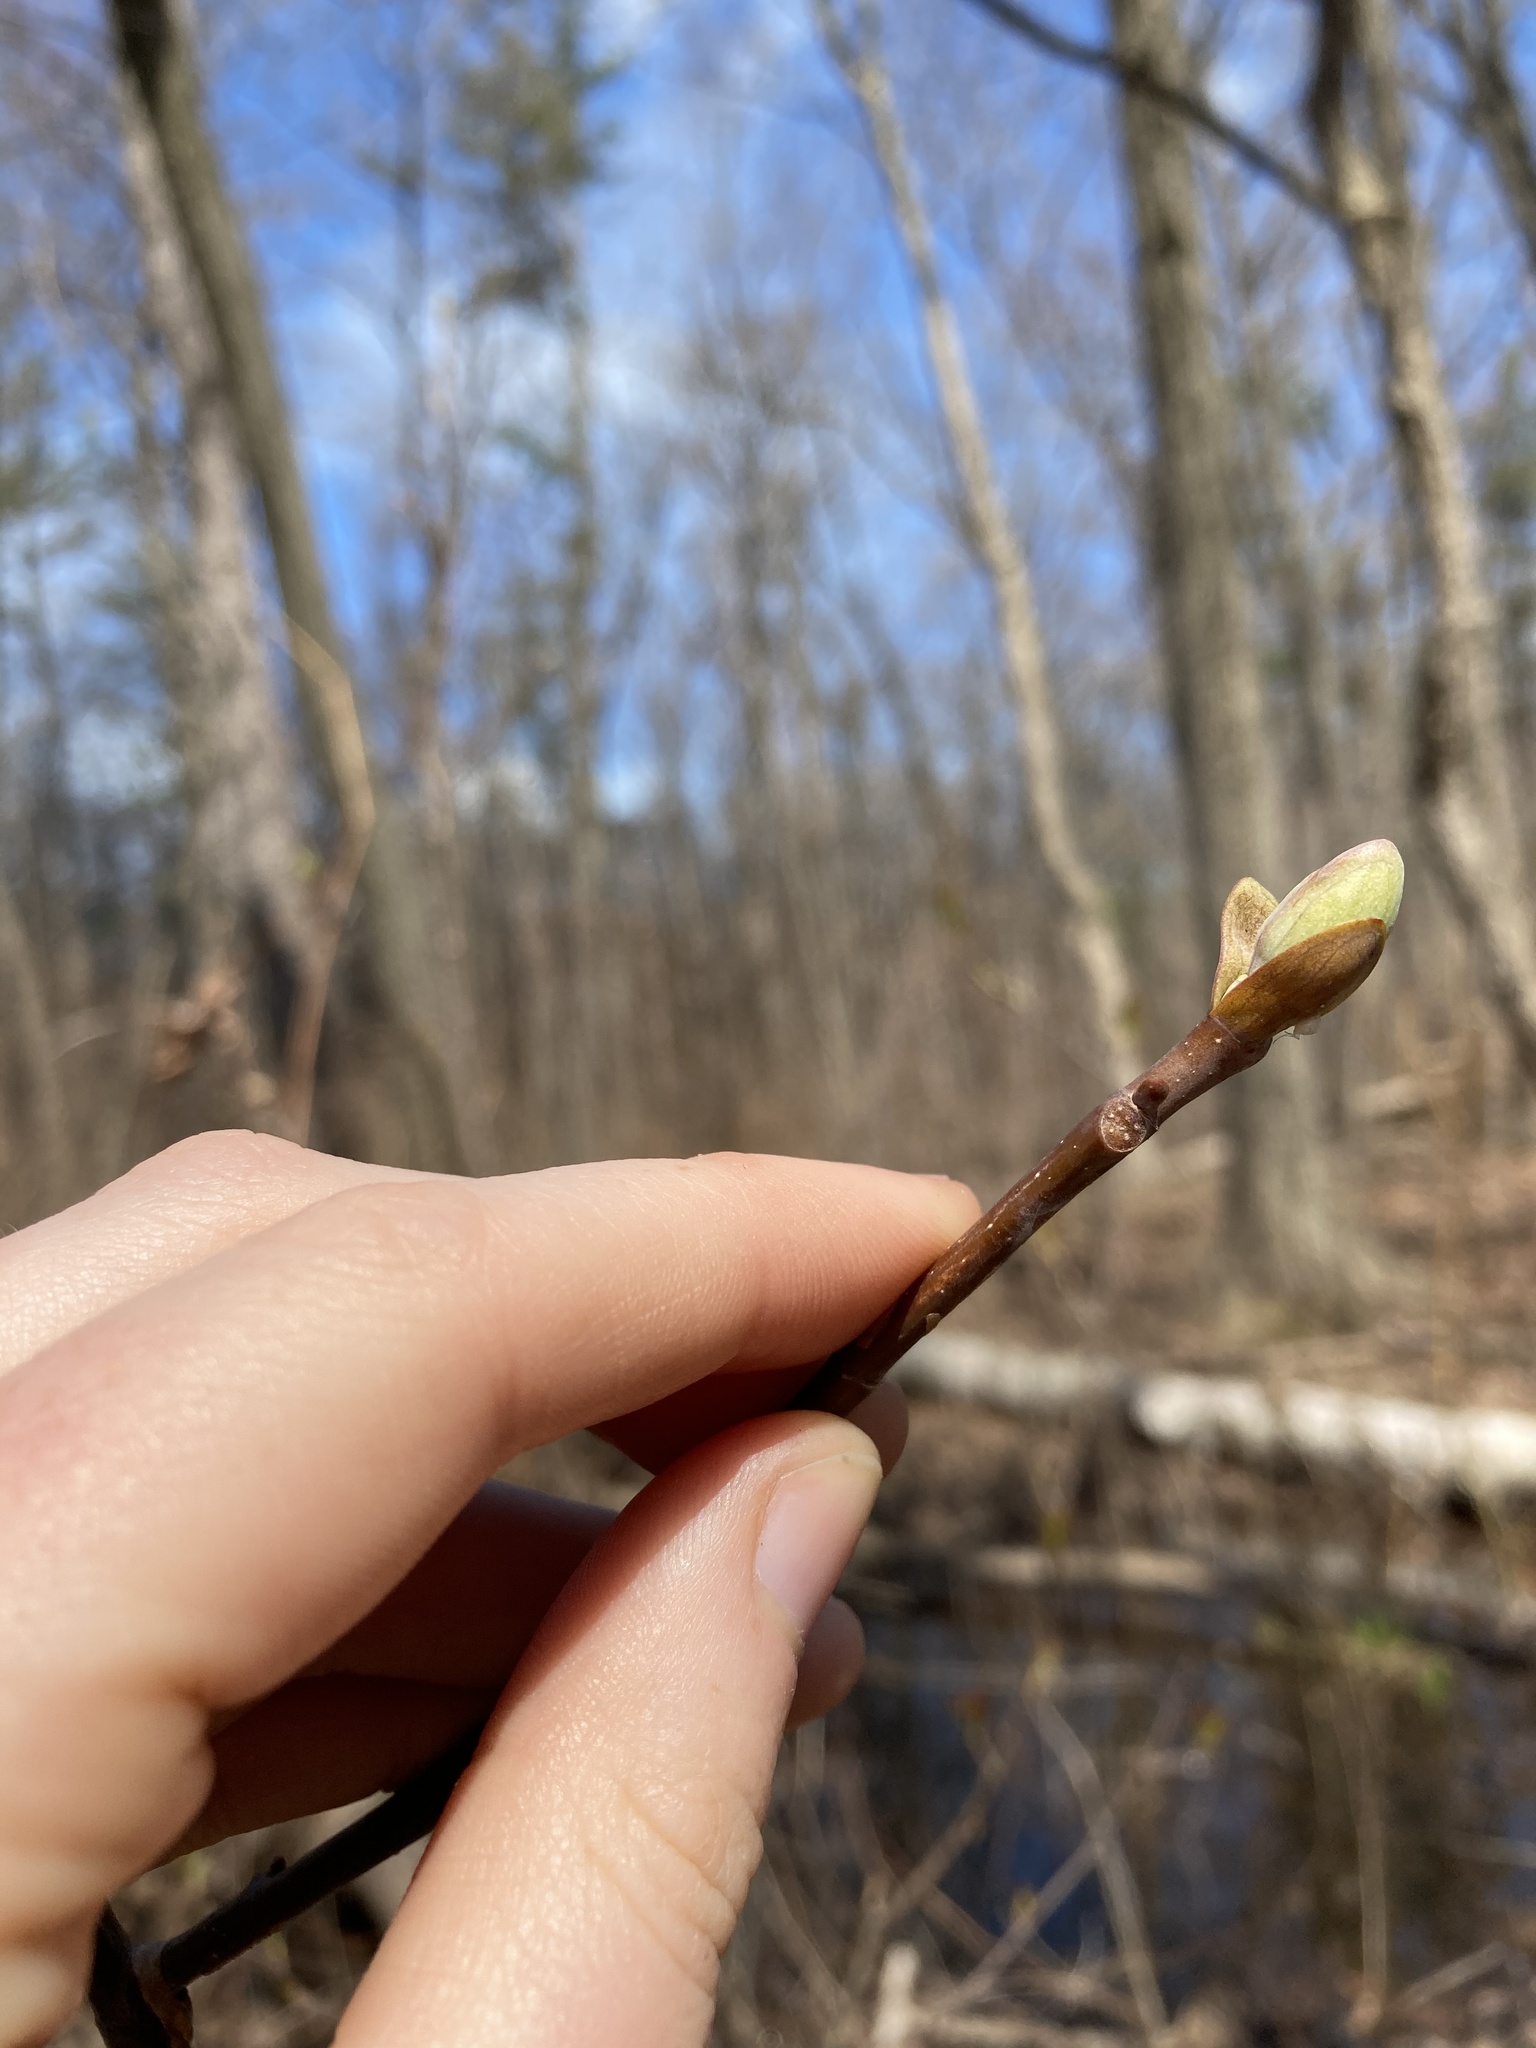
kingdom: Plantae
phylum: Tracheophyta
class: Magnoliopsida
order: Magnoliales
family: Magnoliaceae
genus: Liriodendron
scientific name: Liriodendron tulipifera
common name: Tulip tree
